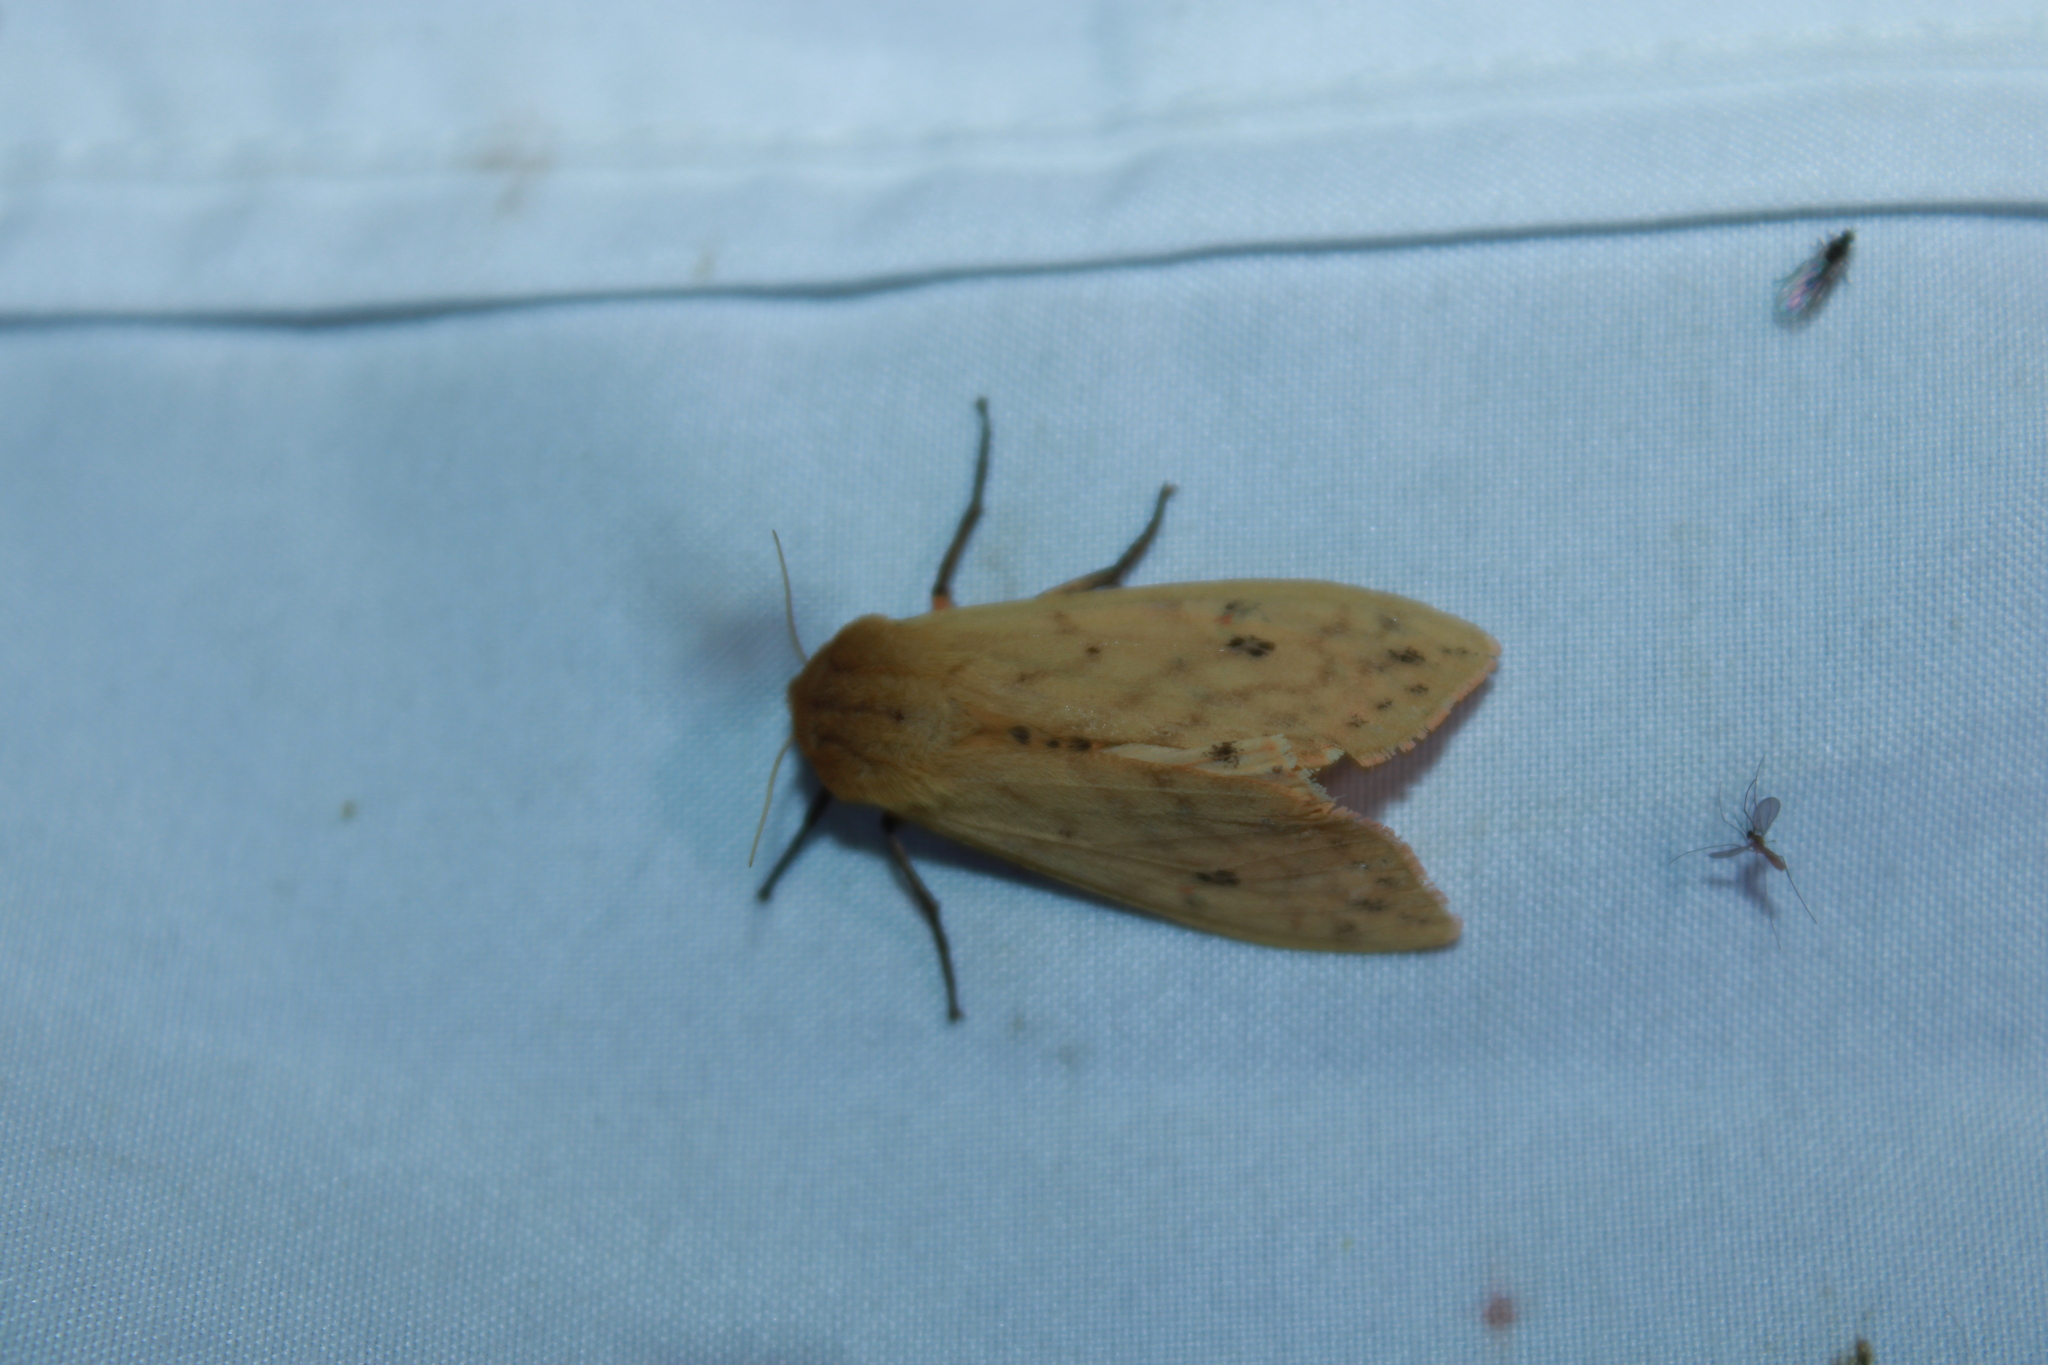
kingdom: Animalia
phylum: Arthropoda
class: Insecta
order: Lepidoptera
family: Erebidae
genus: Pyrrharctia
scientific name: Pyrrharctia isabella
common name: Isabella tiger moth
